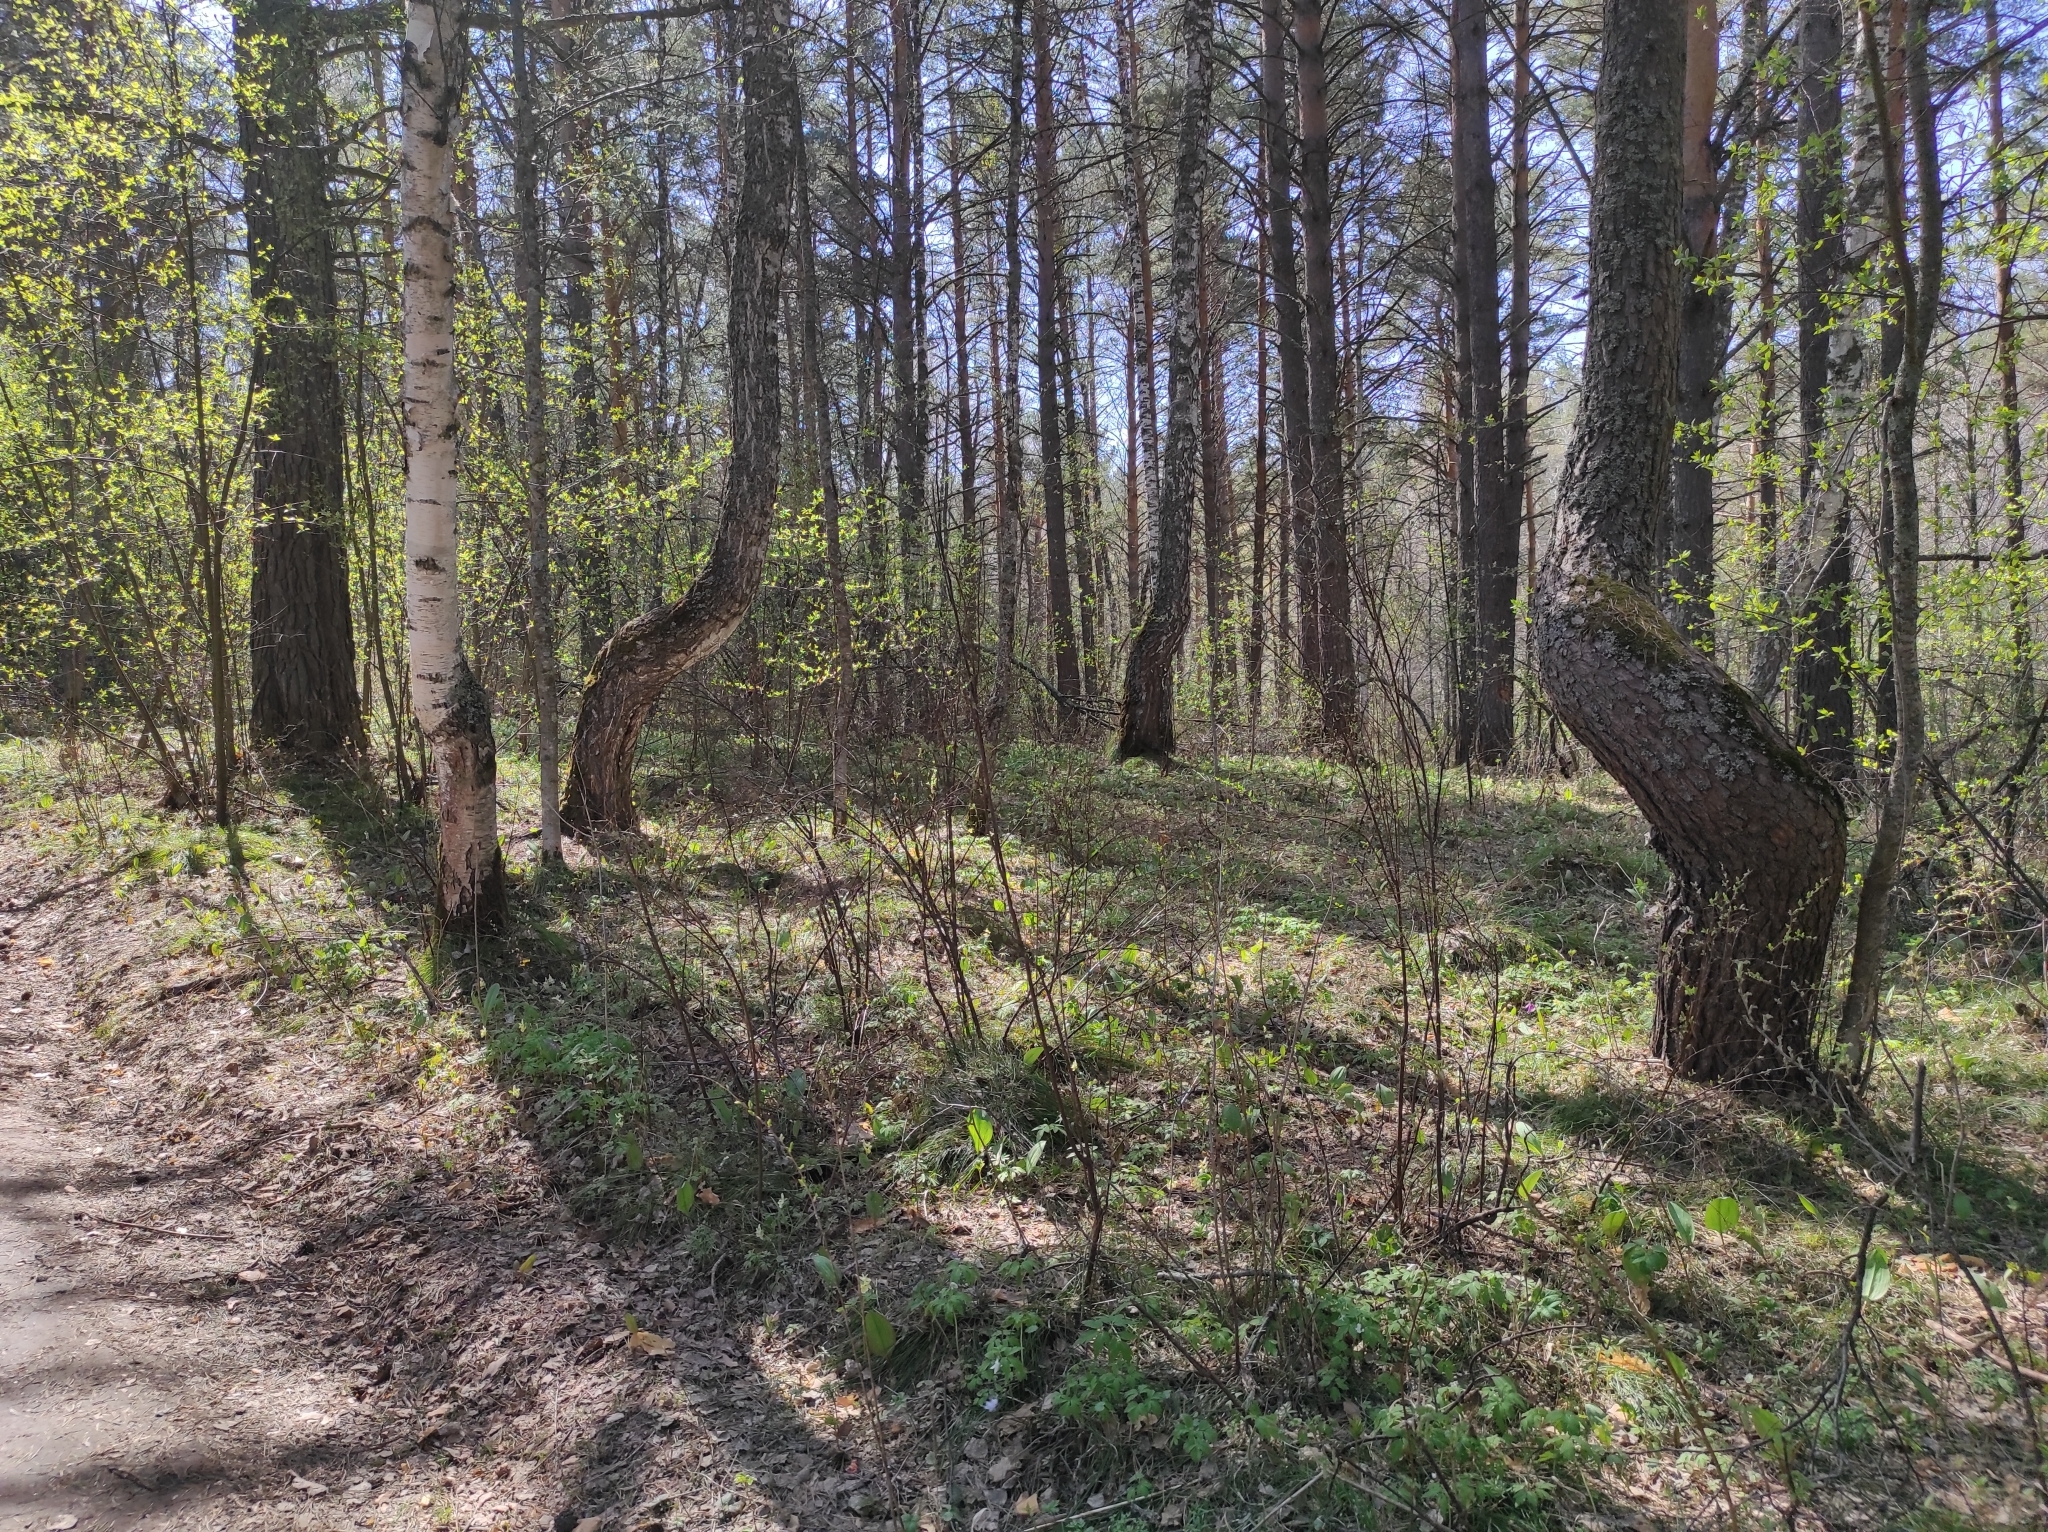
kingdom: Plantae
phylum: Tracheophyta
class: Pinopsida
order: Pinales
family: Pinaceae
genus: Pinus
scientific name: Pinus sylvestris
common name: Scots pine
